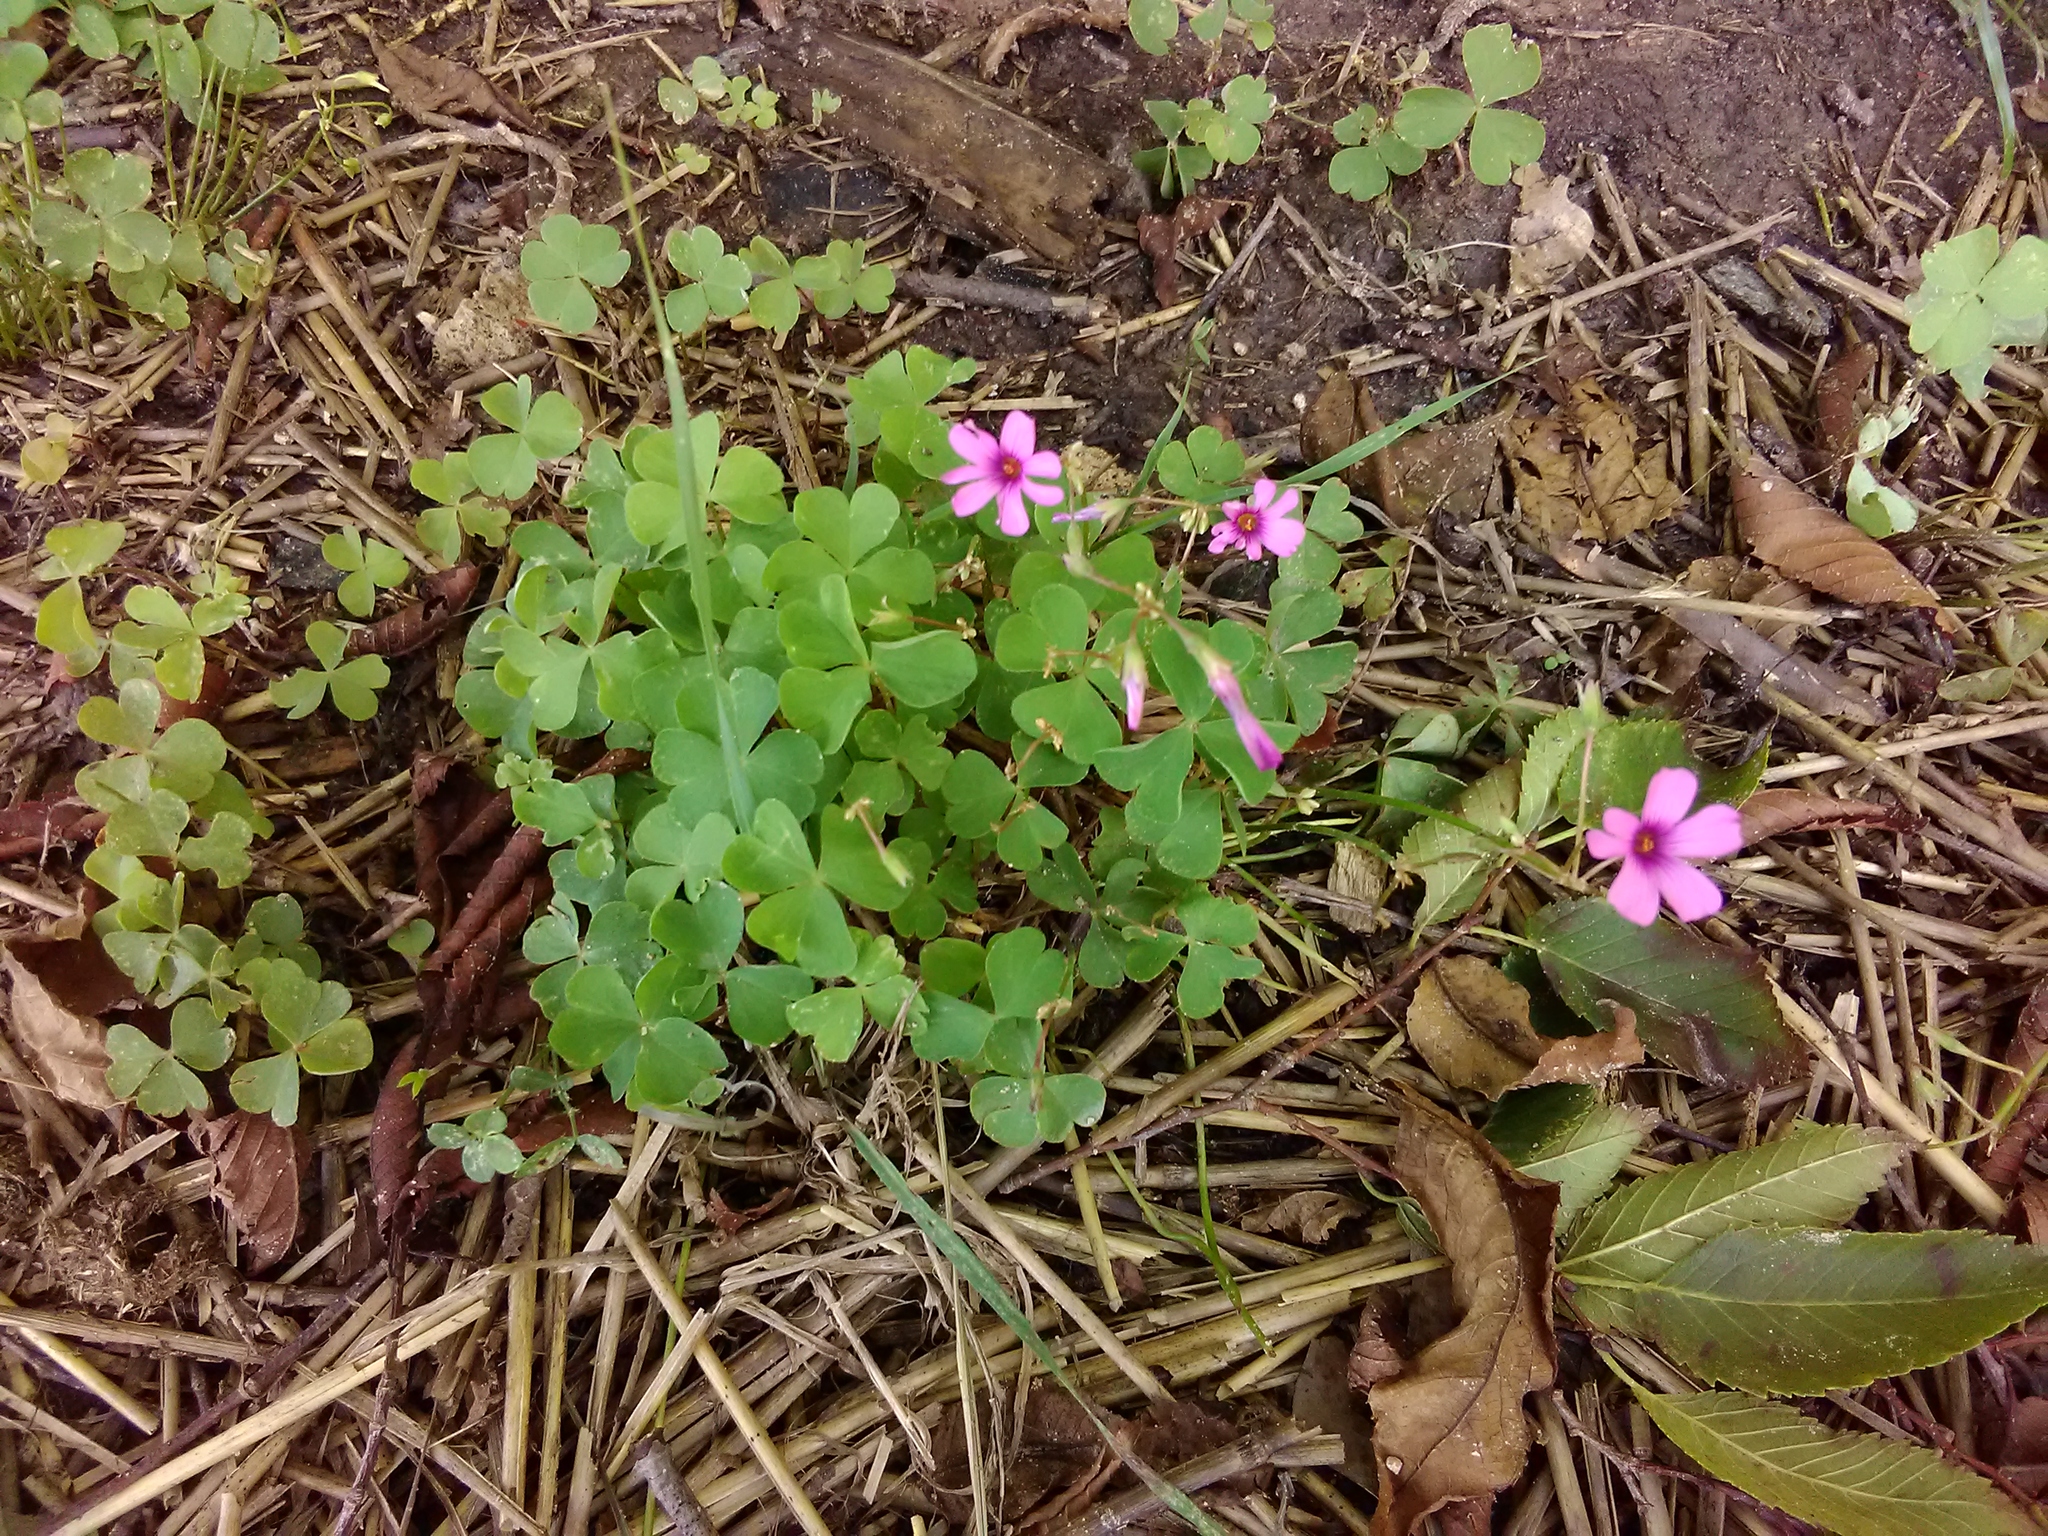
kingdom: Plantae
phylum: Tracheophyta
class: Magnoliopsida
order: Oxalidales
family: Oxalidaceae
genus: Oxalis
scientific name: Oxalis articulata
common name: Pink-sorrel
